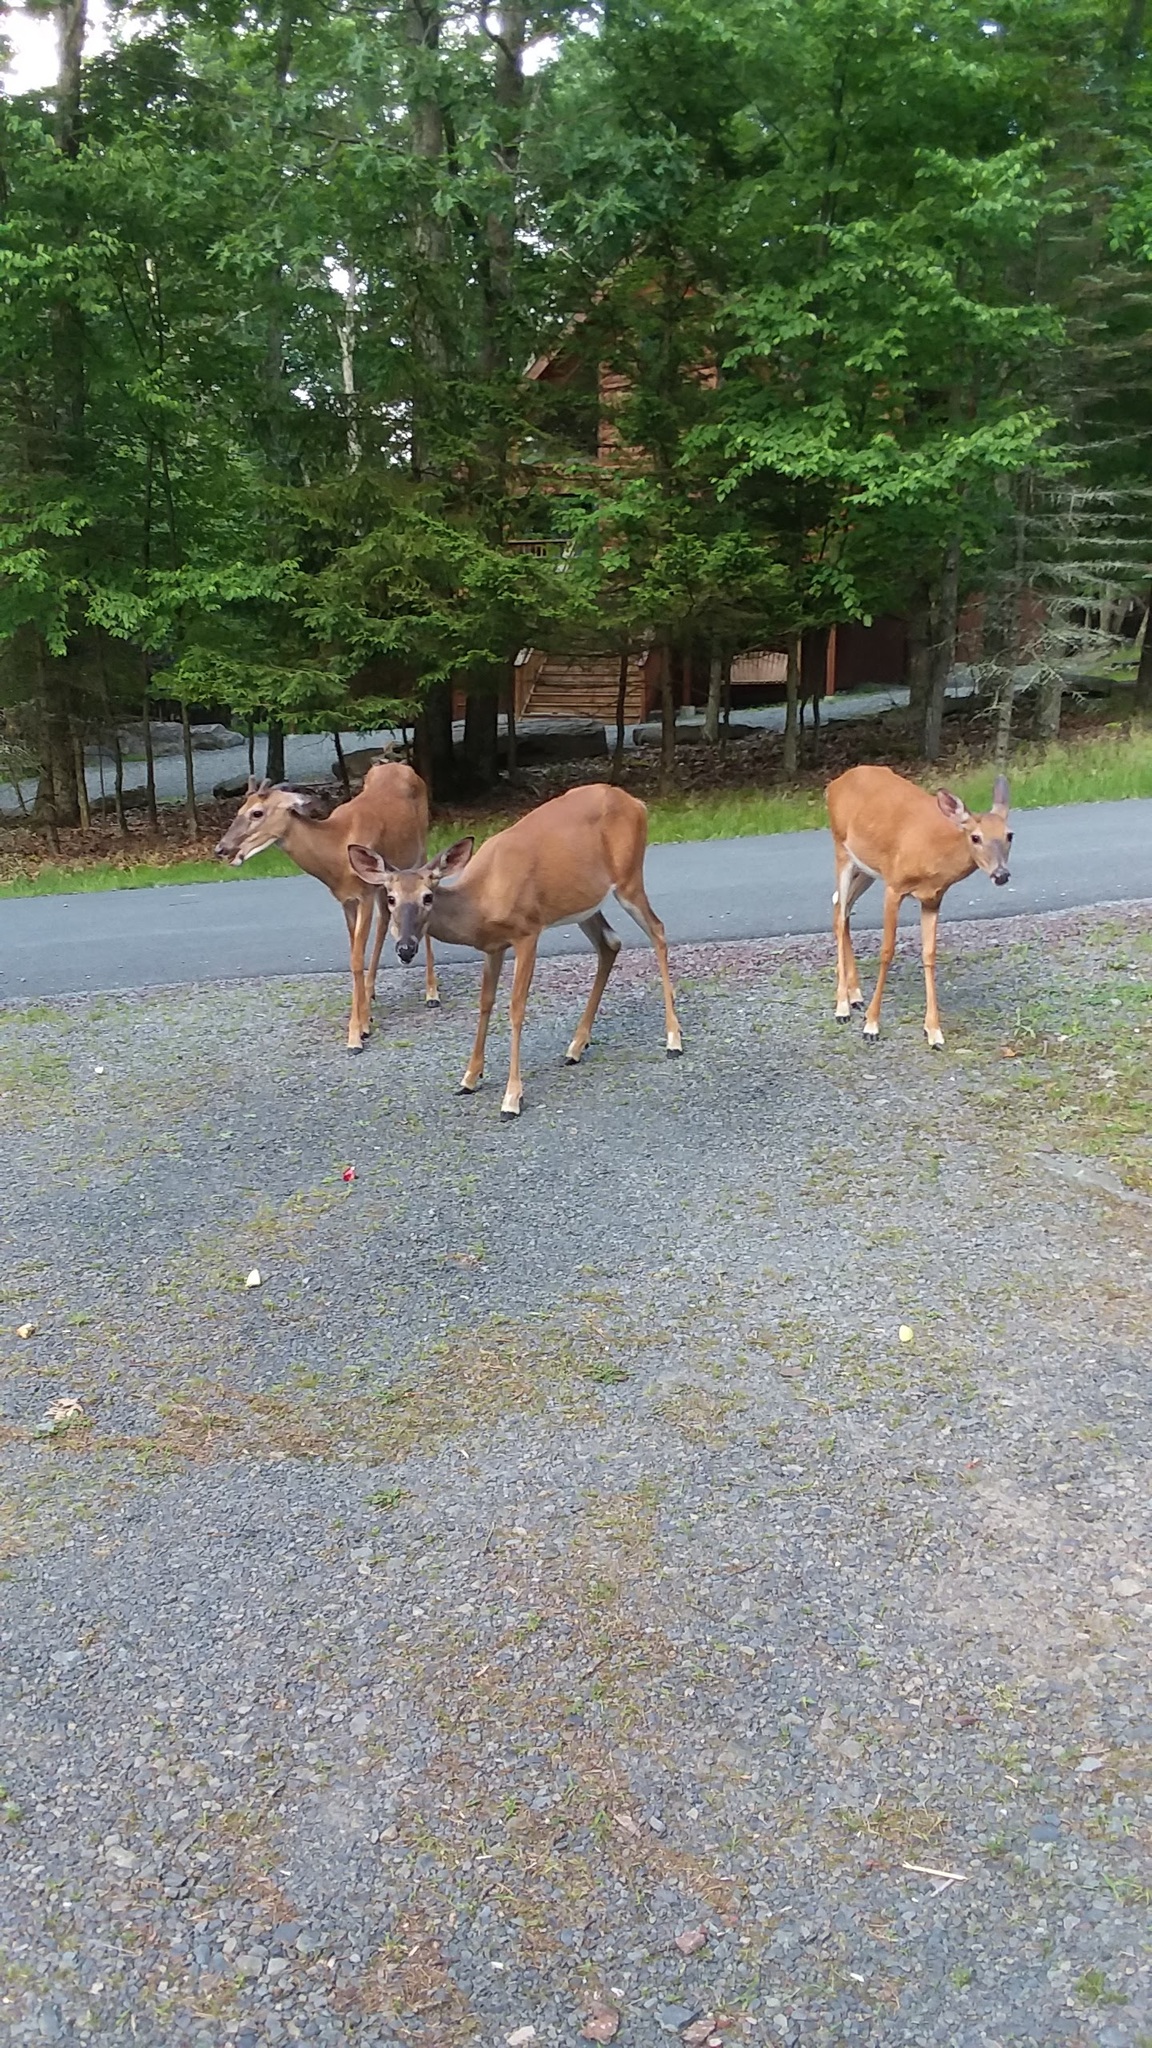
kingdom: Animalia
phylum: Chordata
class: Mammalia
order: Artiodactyla
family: Cervidae
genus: Odocoileus
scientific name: Odocoileus virginianus
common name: White-tailed deer
